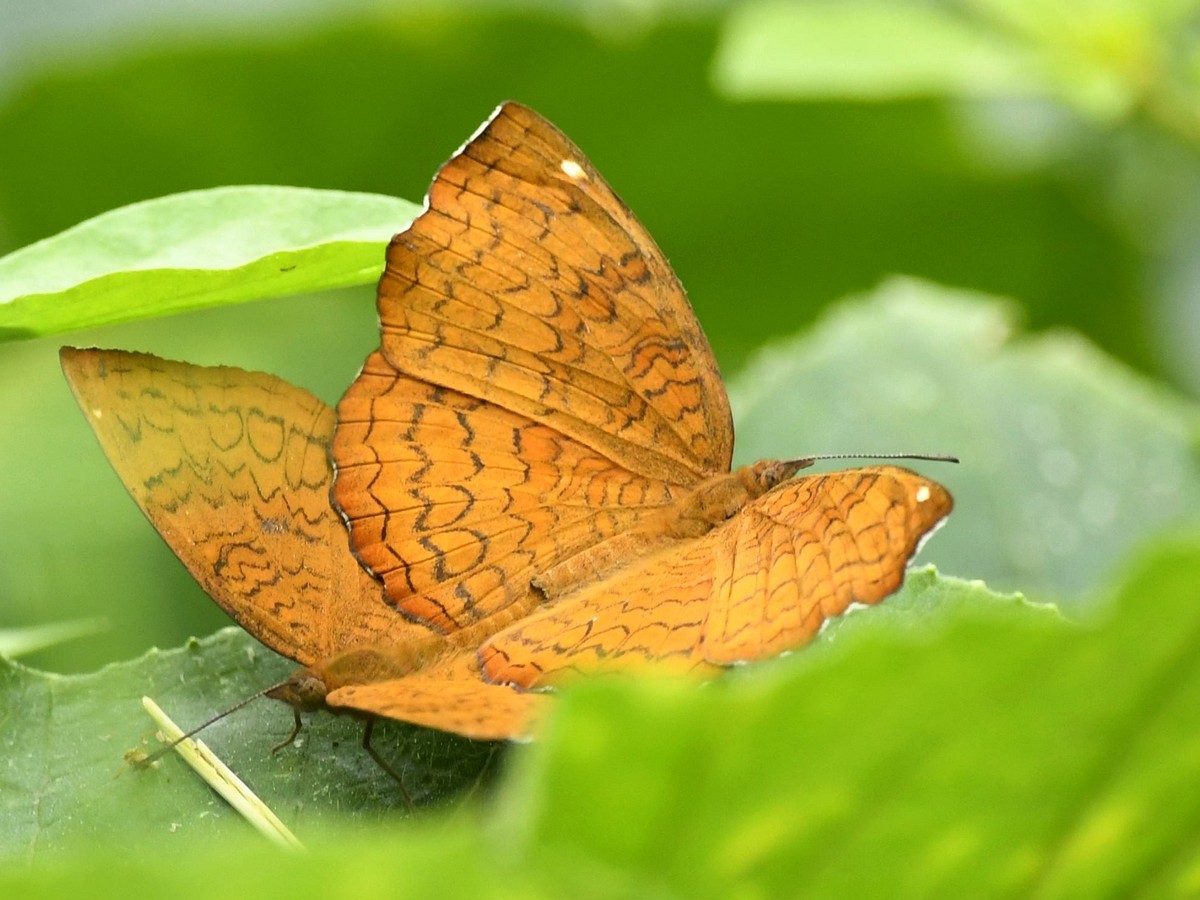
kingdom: Animalia
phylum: Arthropoda
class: Insecta
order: Lepidoptera
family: Nymphalidae
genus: Ariadne
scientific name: Ariadne merione
